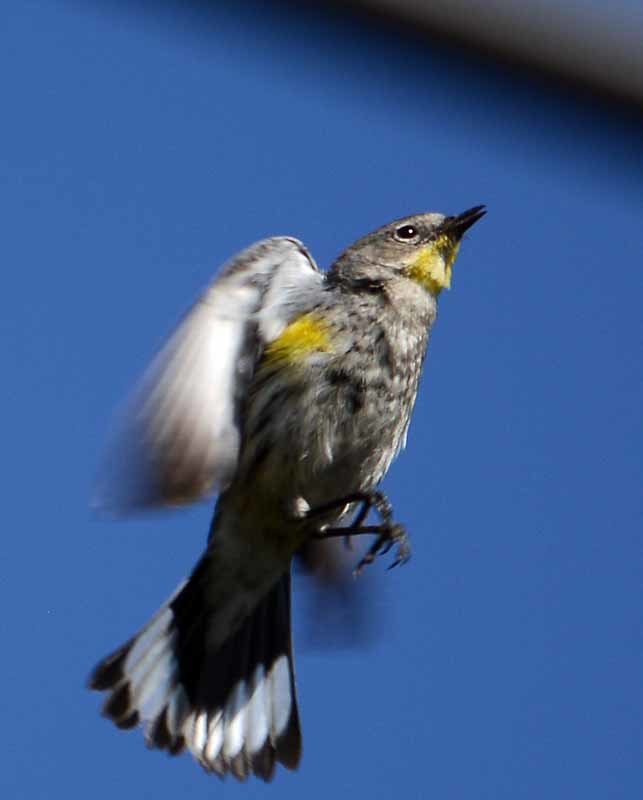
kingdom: Animalia
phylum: Chordata
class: Aves
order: Passeriformes
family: Parulidae
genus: Setophaga
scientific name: Setophaga coronata
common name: Myrtle warbler
